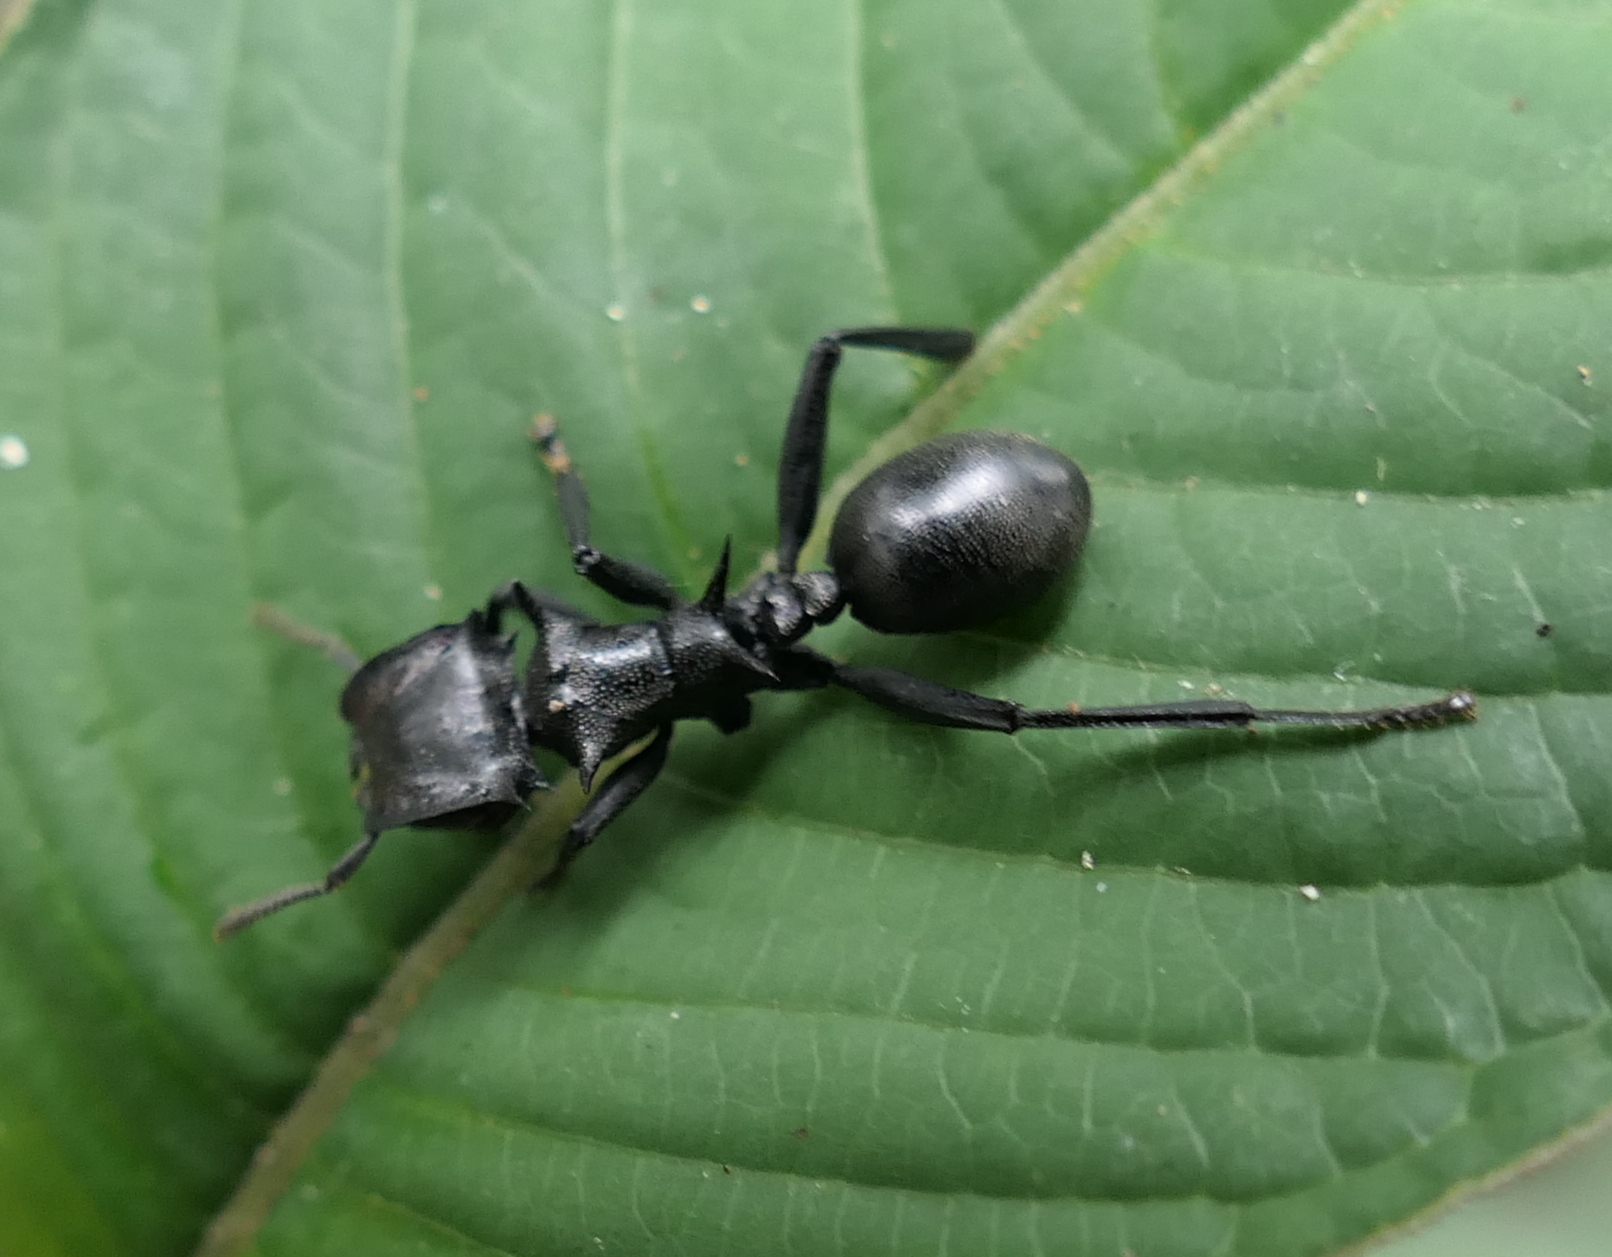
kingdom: Animalia
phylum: Arthropoda
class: Insecta
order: Hymenoptera
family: Formicidae
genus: Cephalotes
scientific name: Cephalotes atratus
